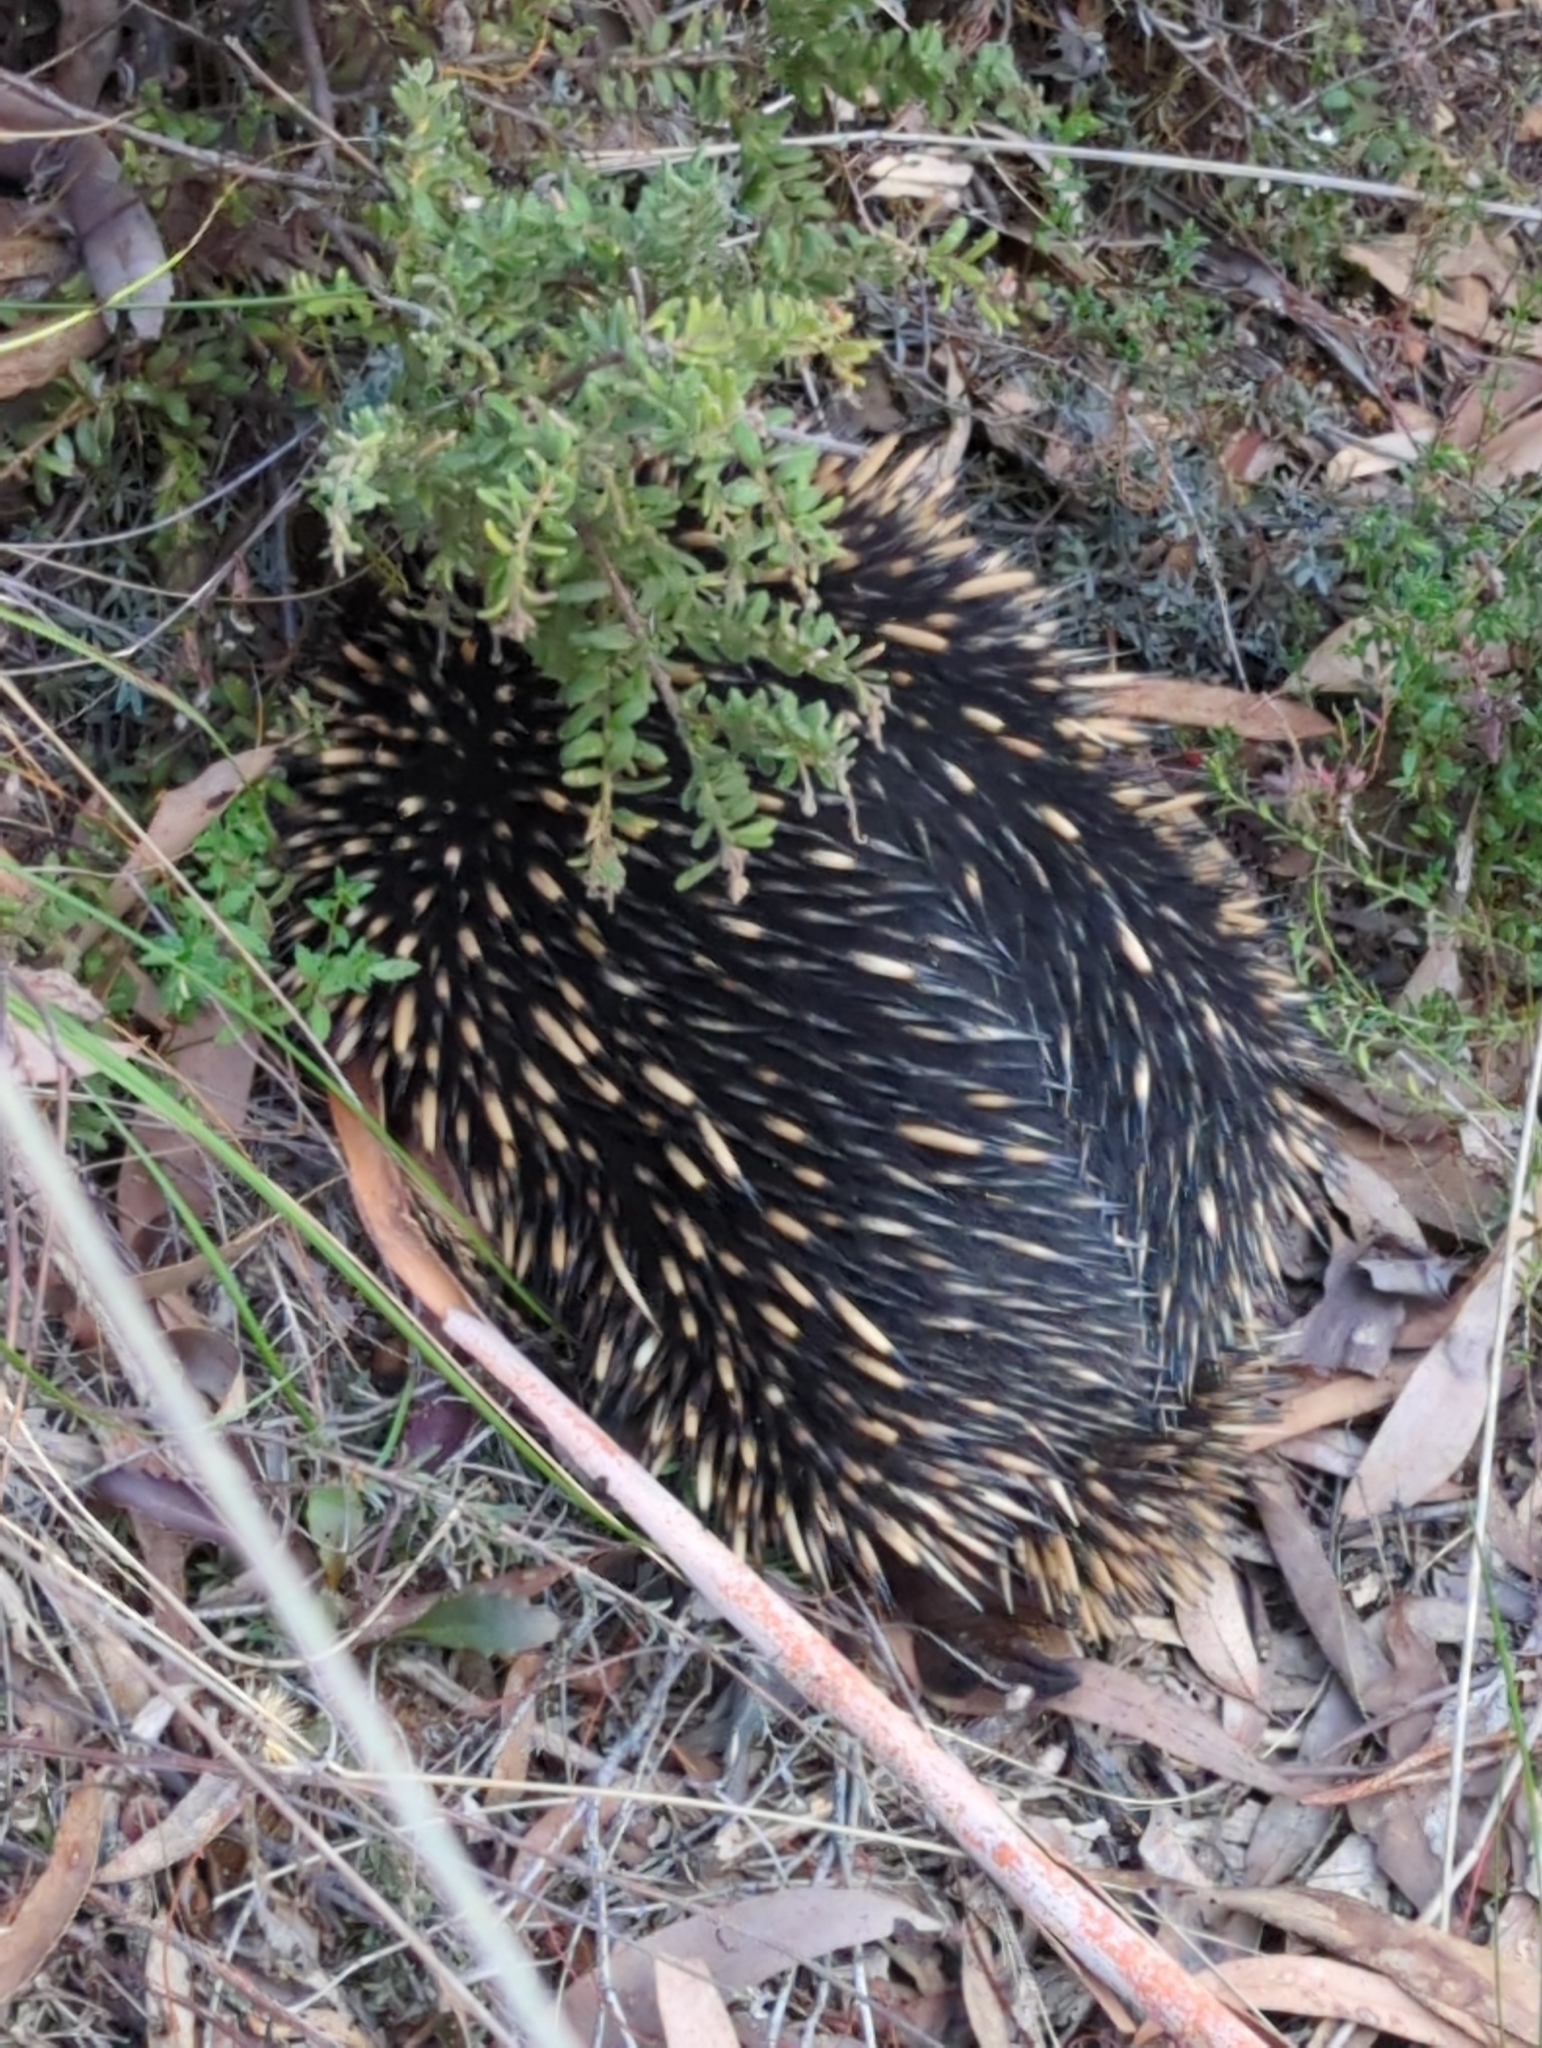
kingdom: Animalia
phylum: Chordata
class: Mammalia
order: Monotremata
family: Tachyglossidae
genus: Tachyglossus
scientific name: Tachyglossus aculeatus
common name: Short-beaked echidna
